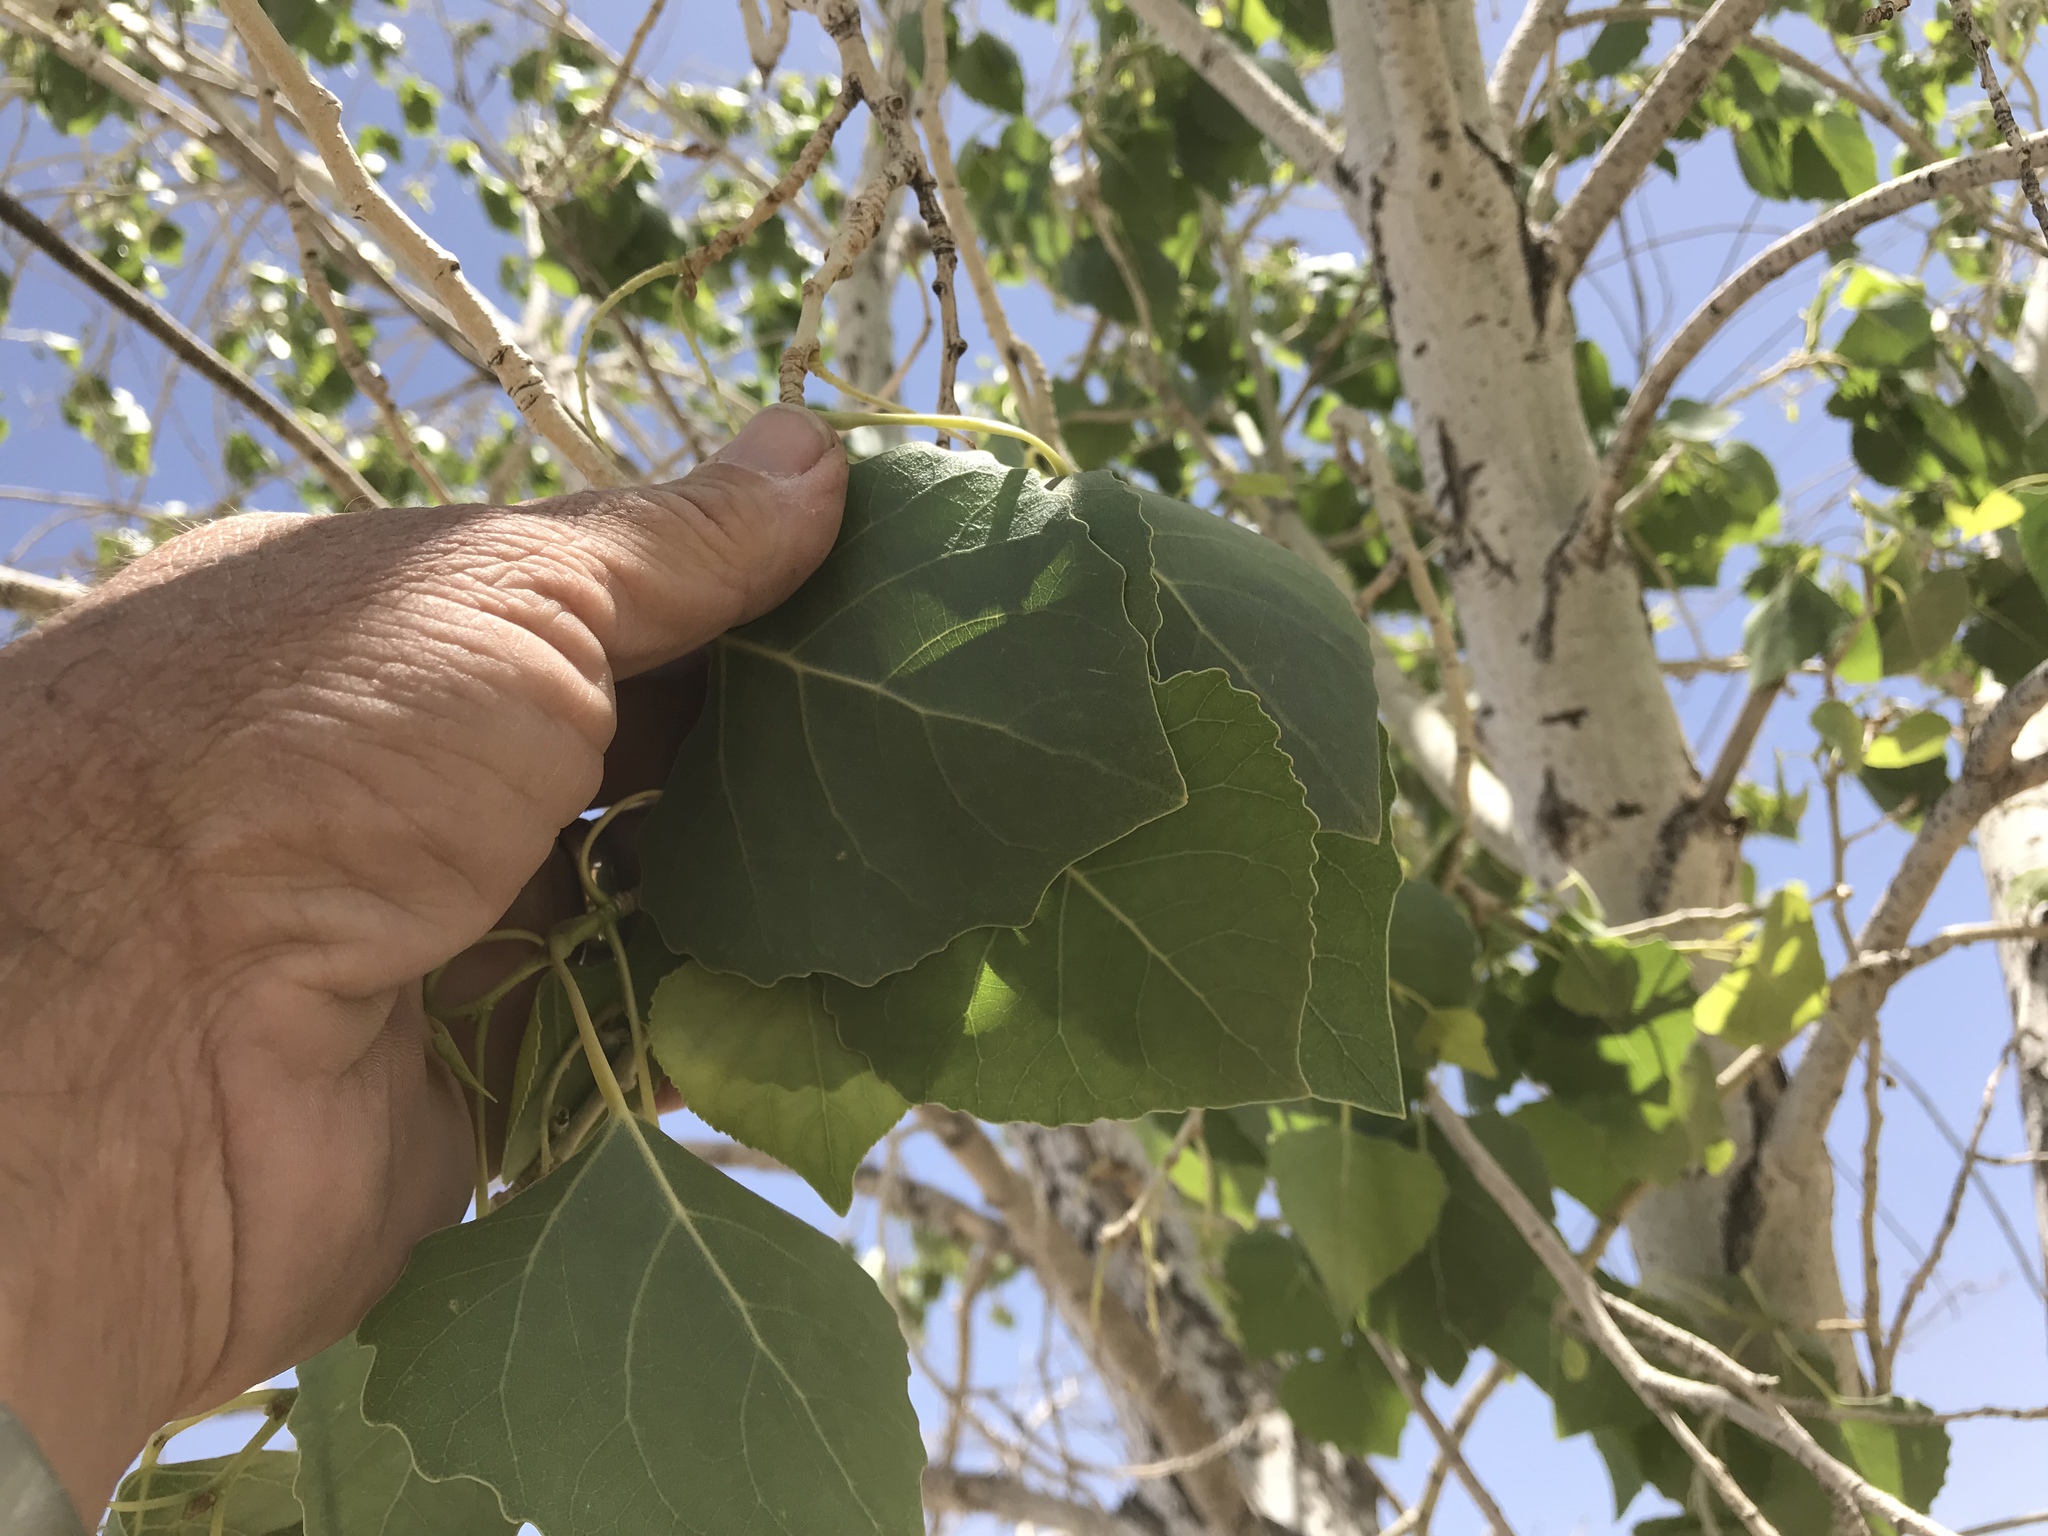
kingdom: Plantae
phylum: Tracheophyta
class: Magnoliopsida
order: Malpighiales
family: Salicaceae
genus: Populus
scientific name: Populus fremontii
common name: Fremont's cottonwood
